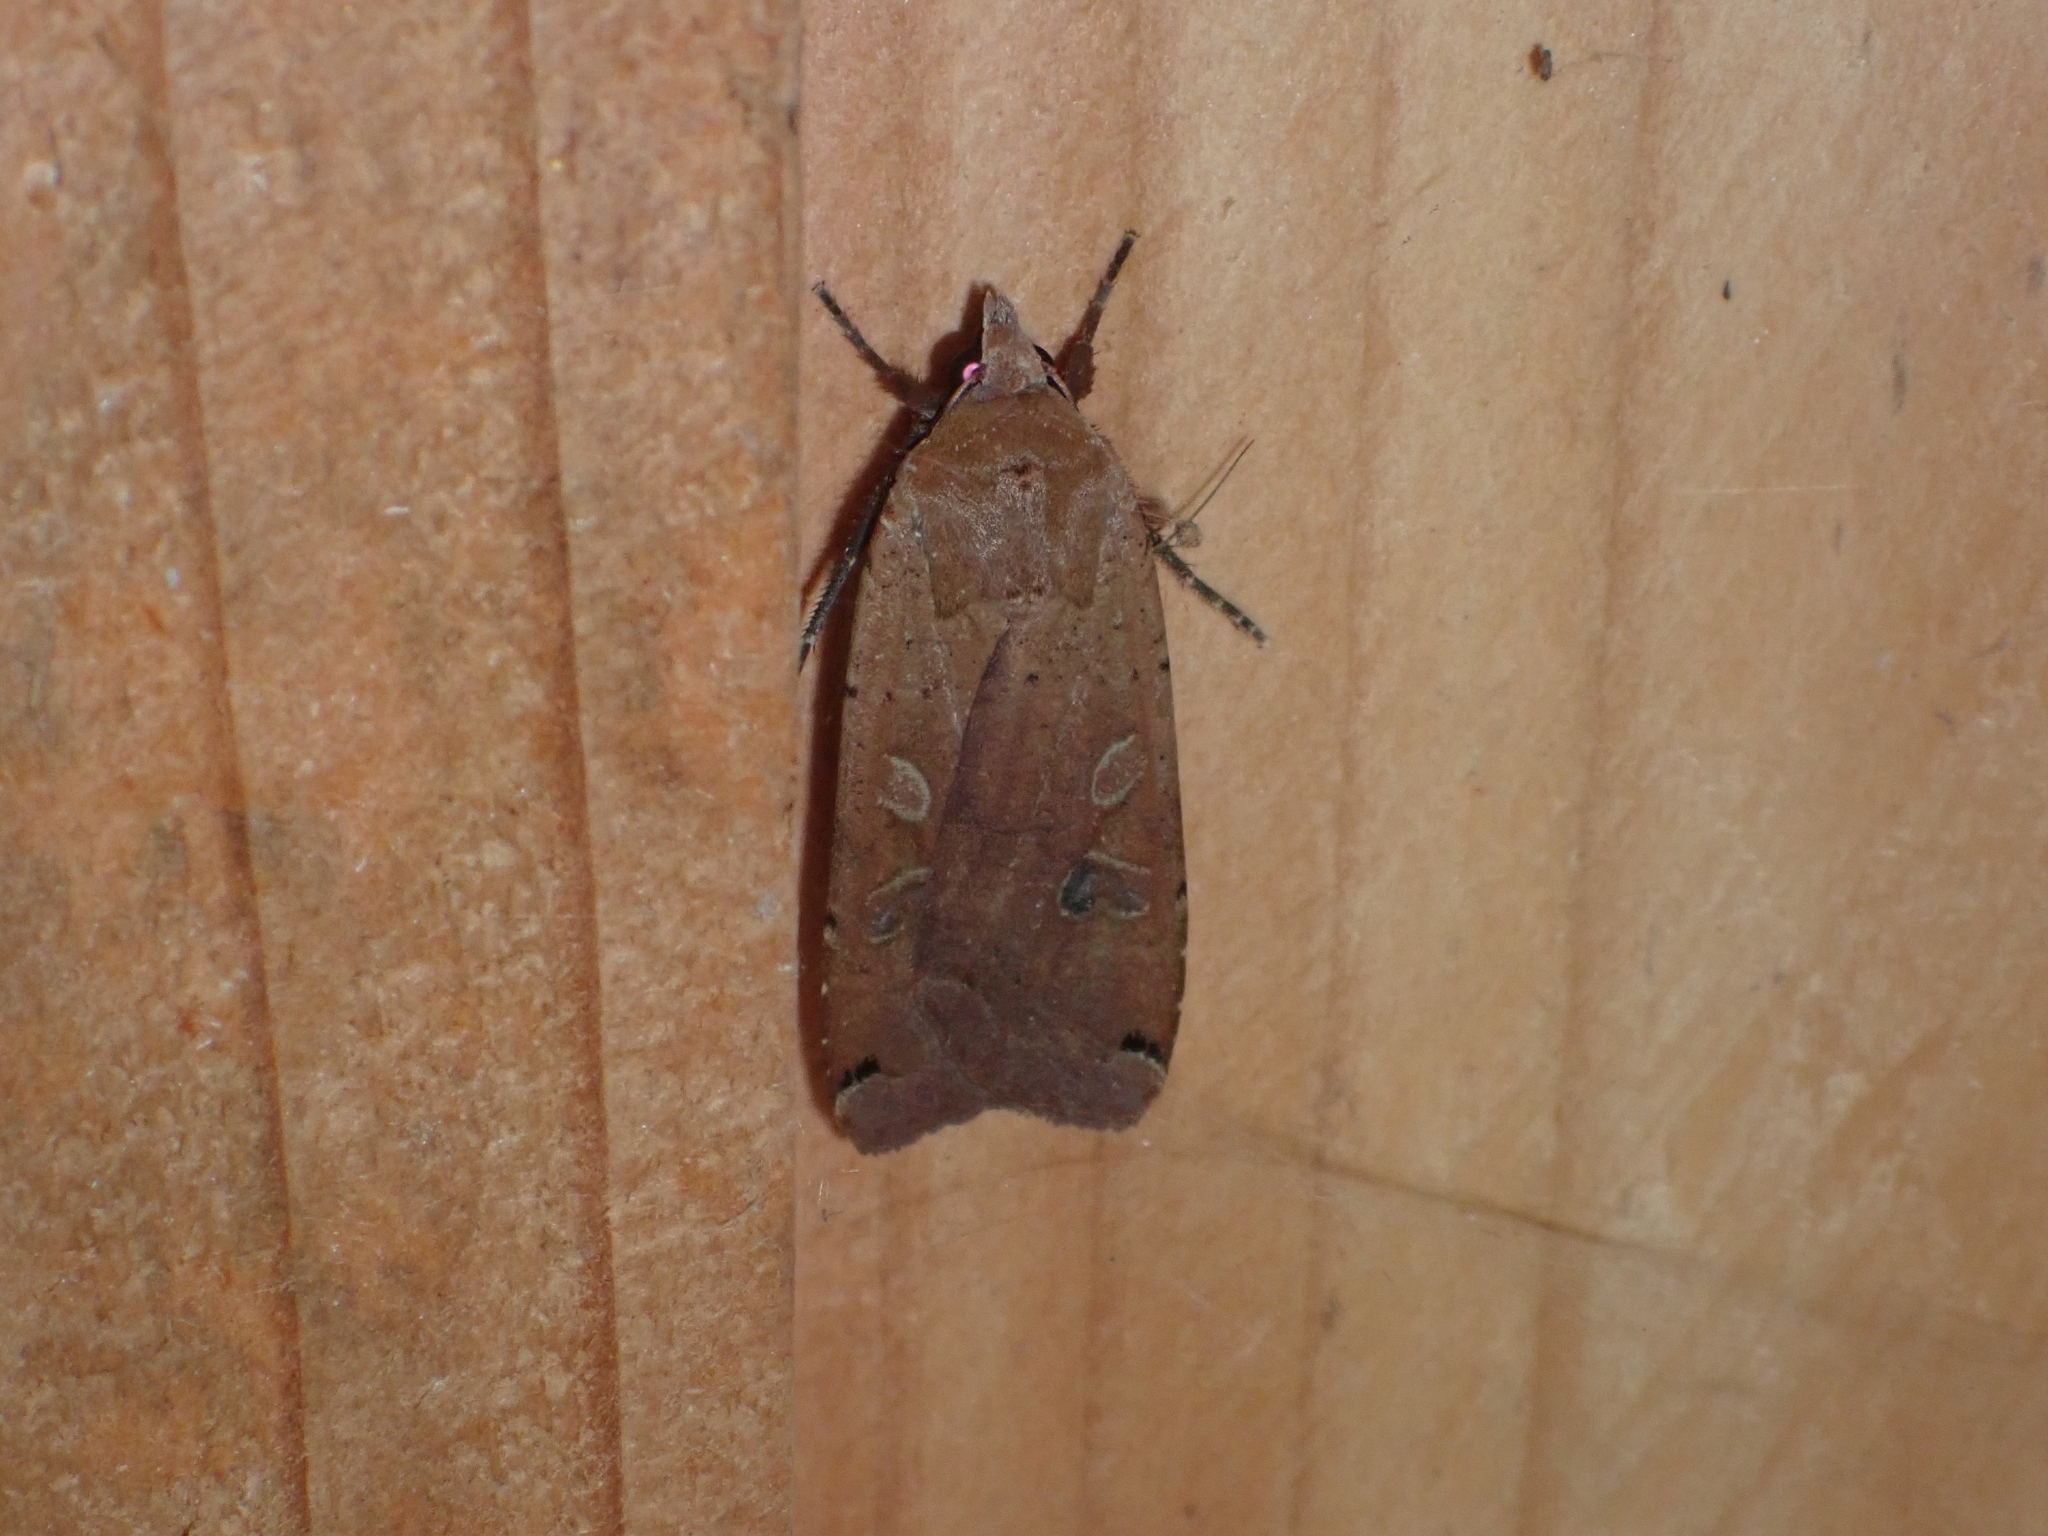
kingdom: Animalia
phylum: Arthropoda
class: Insecta
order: Lepidoptera
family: Noctuidae
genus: Noctua
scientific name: Noctua pronuba
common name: Large yellow underwing
